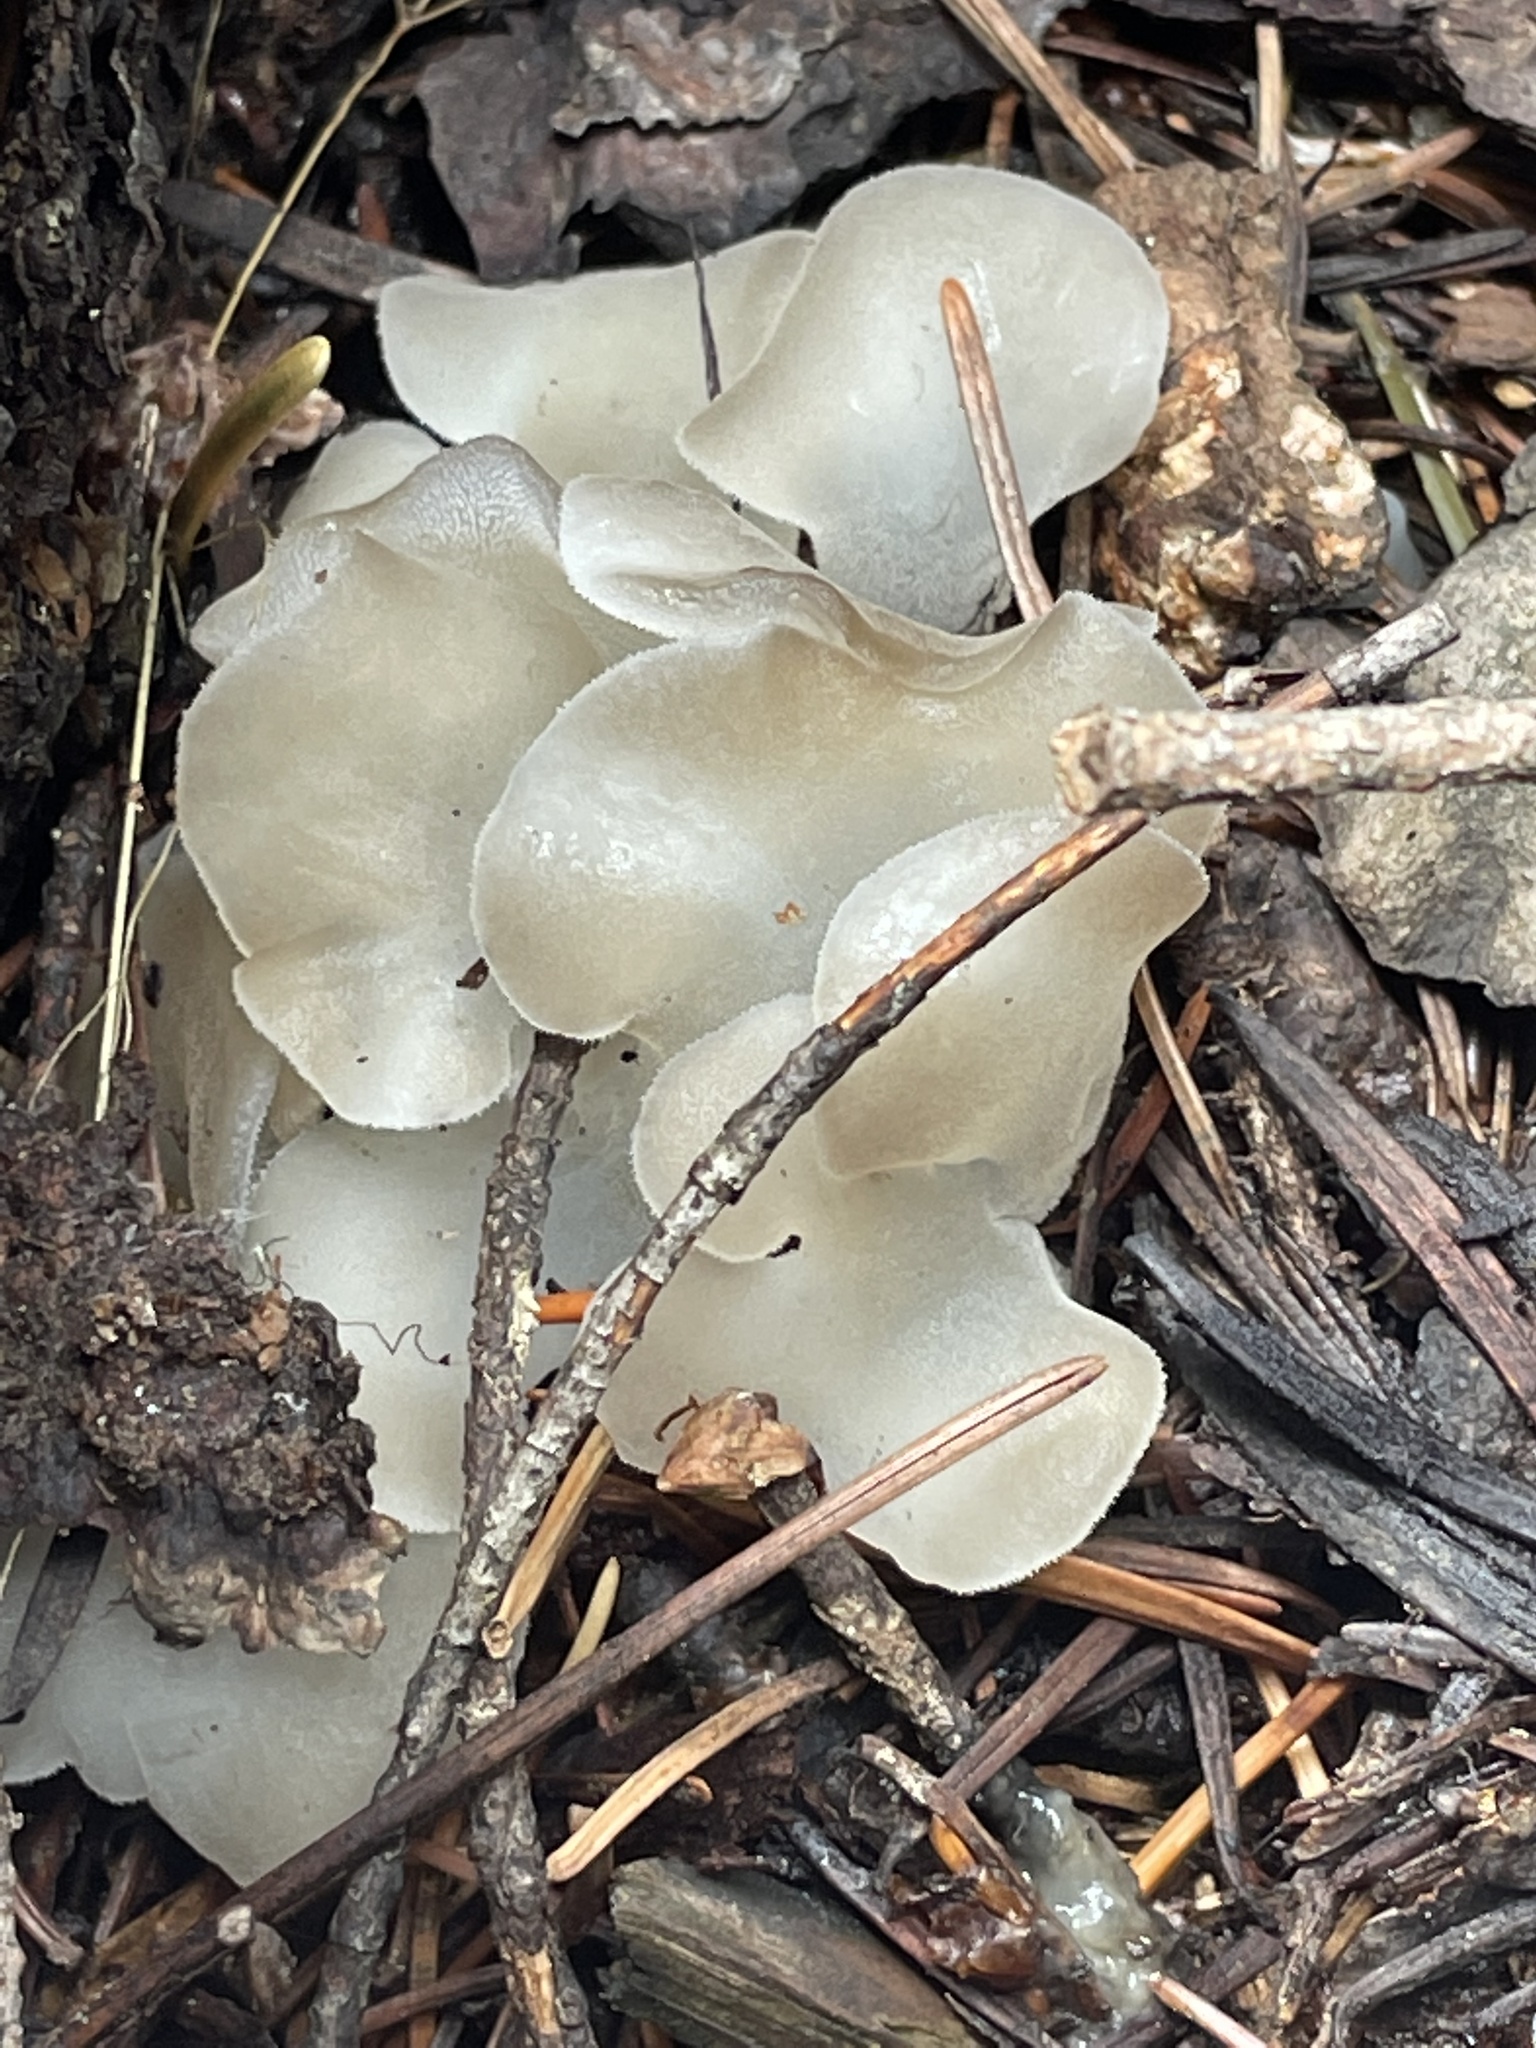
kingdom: Fungi
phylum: Basidiomycota
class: Agaricomycetes
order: Auriculariales
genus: Pseudohydnum
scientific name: Pseudohydnum gelatinosum
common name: Jelly tongue
